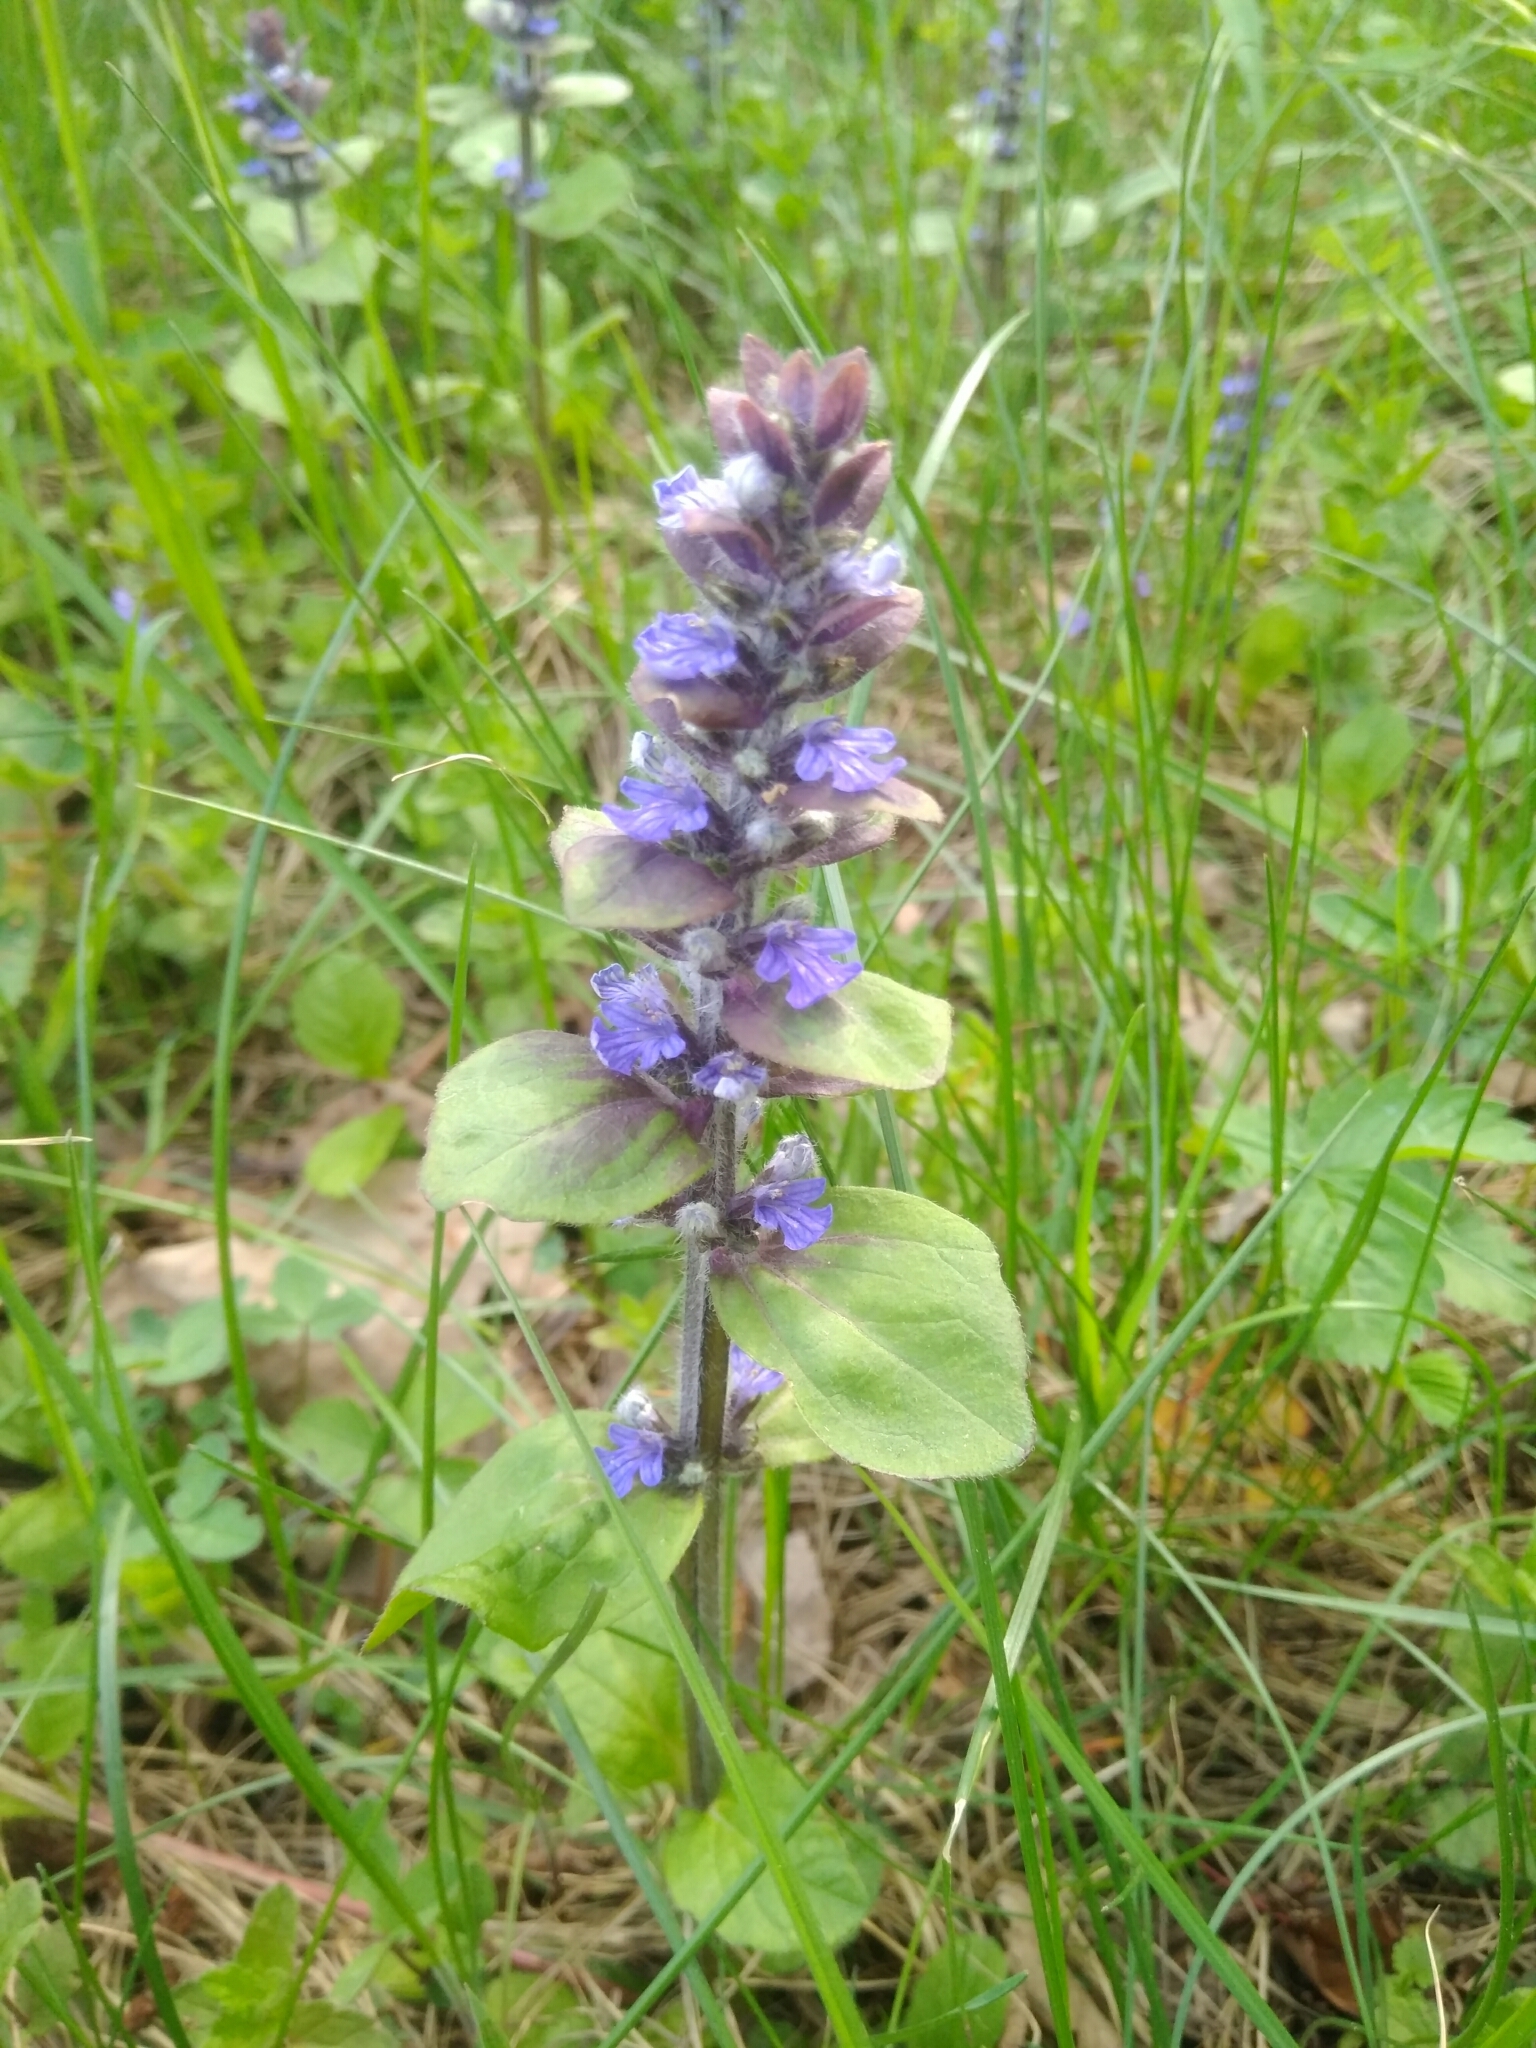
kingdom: Plantae
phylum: Tracheophyta
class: Magnoliopsida
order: Lamiales
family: Lamiaceae
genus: Ajuga
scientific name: Ajuga reptans
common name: Bugle
